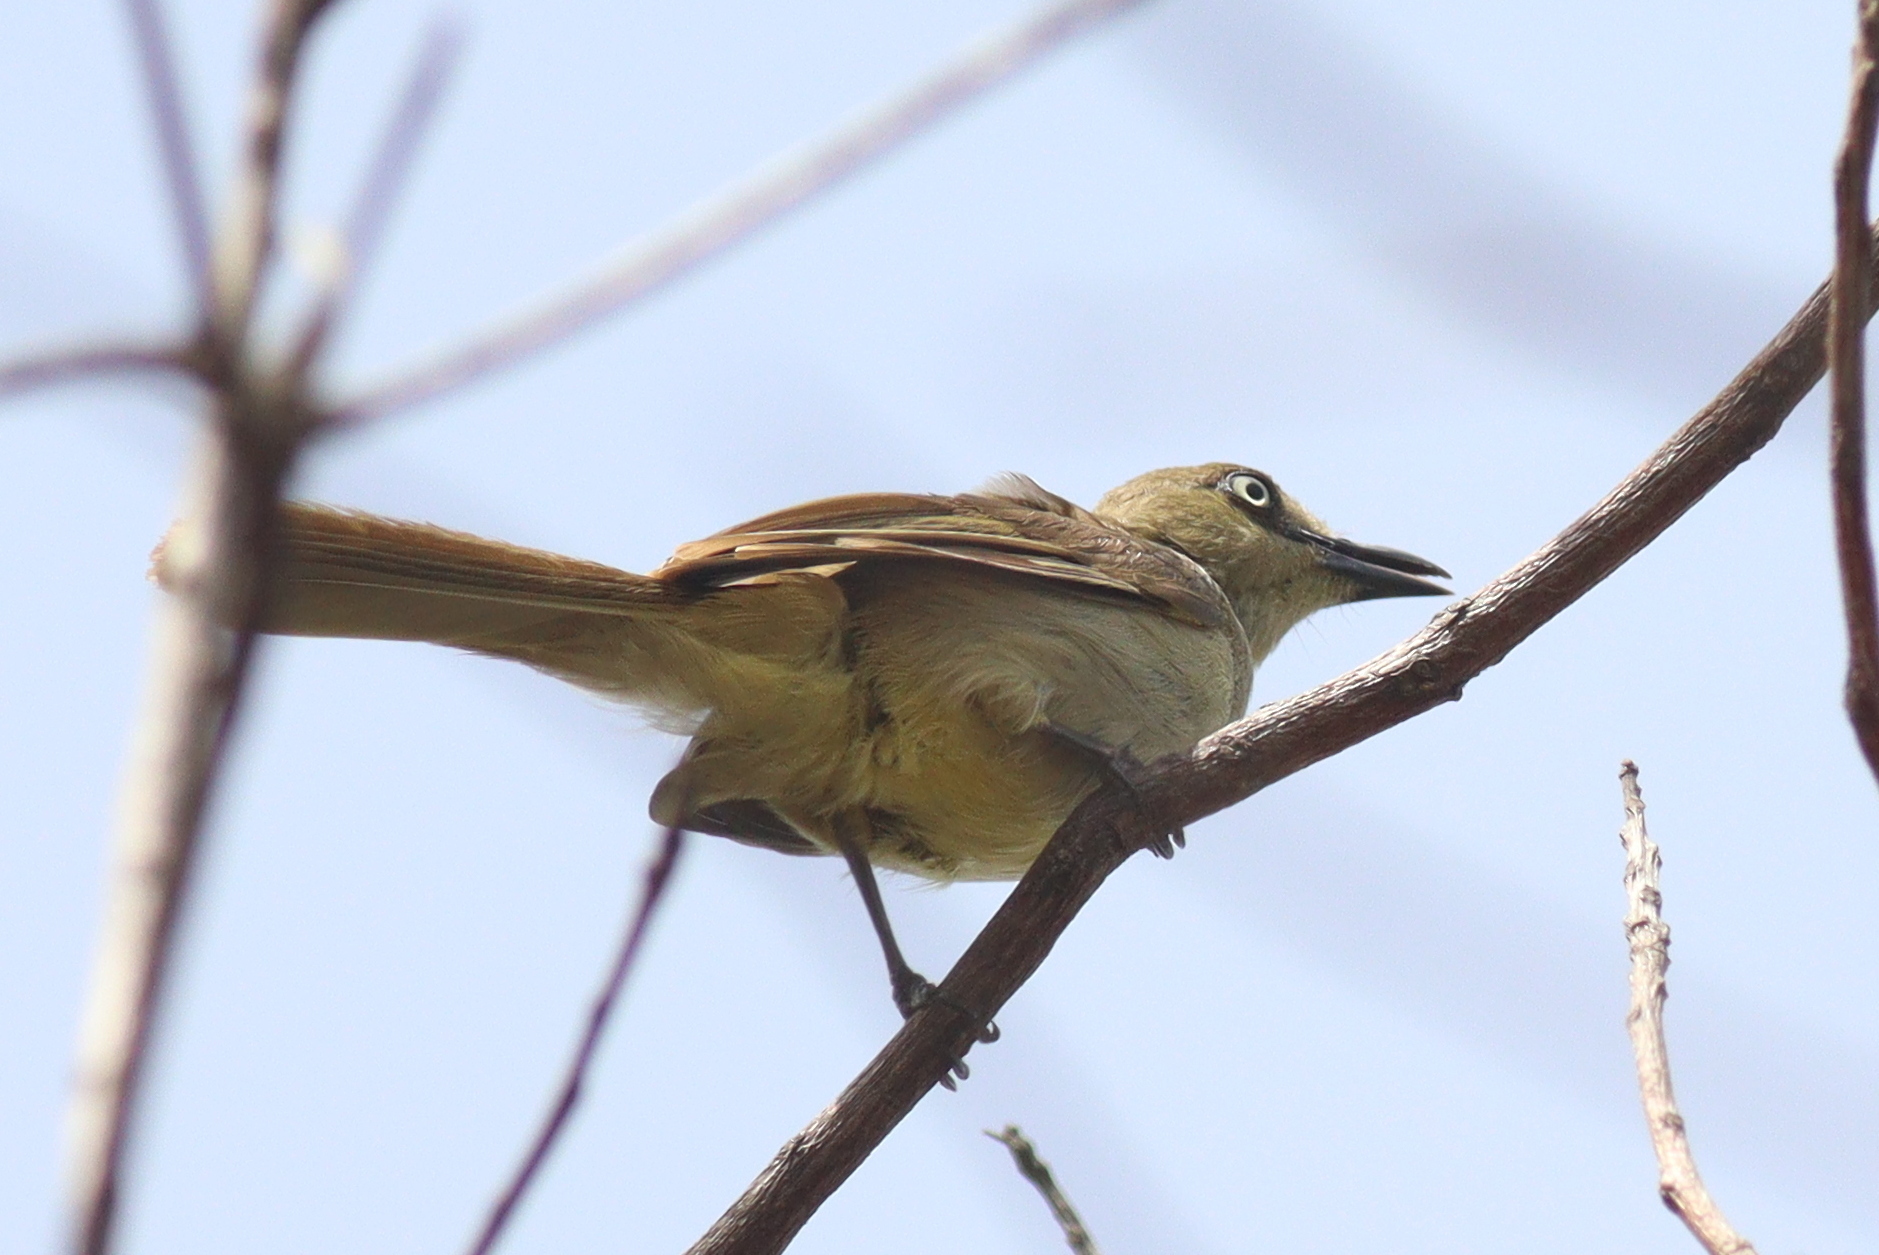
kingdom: Animalia
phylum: Chordata
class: Aves
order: Passeriformes
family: Pycnonotidae
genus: Andropadus
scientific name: Andropadus importunus
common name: Sombre greenbul
